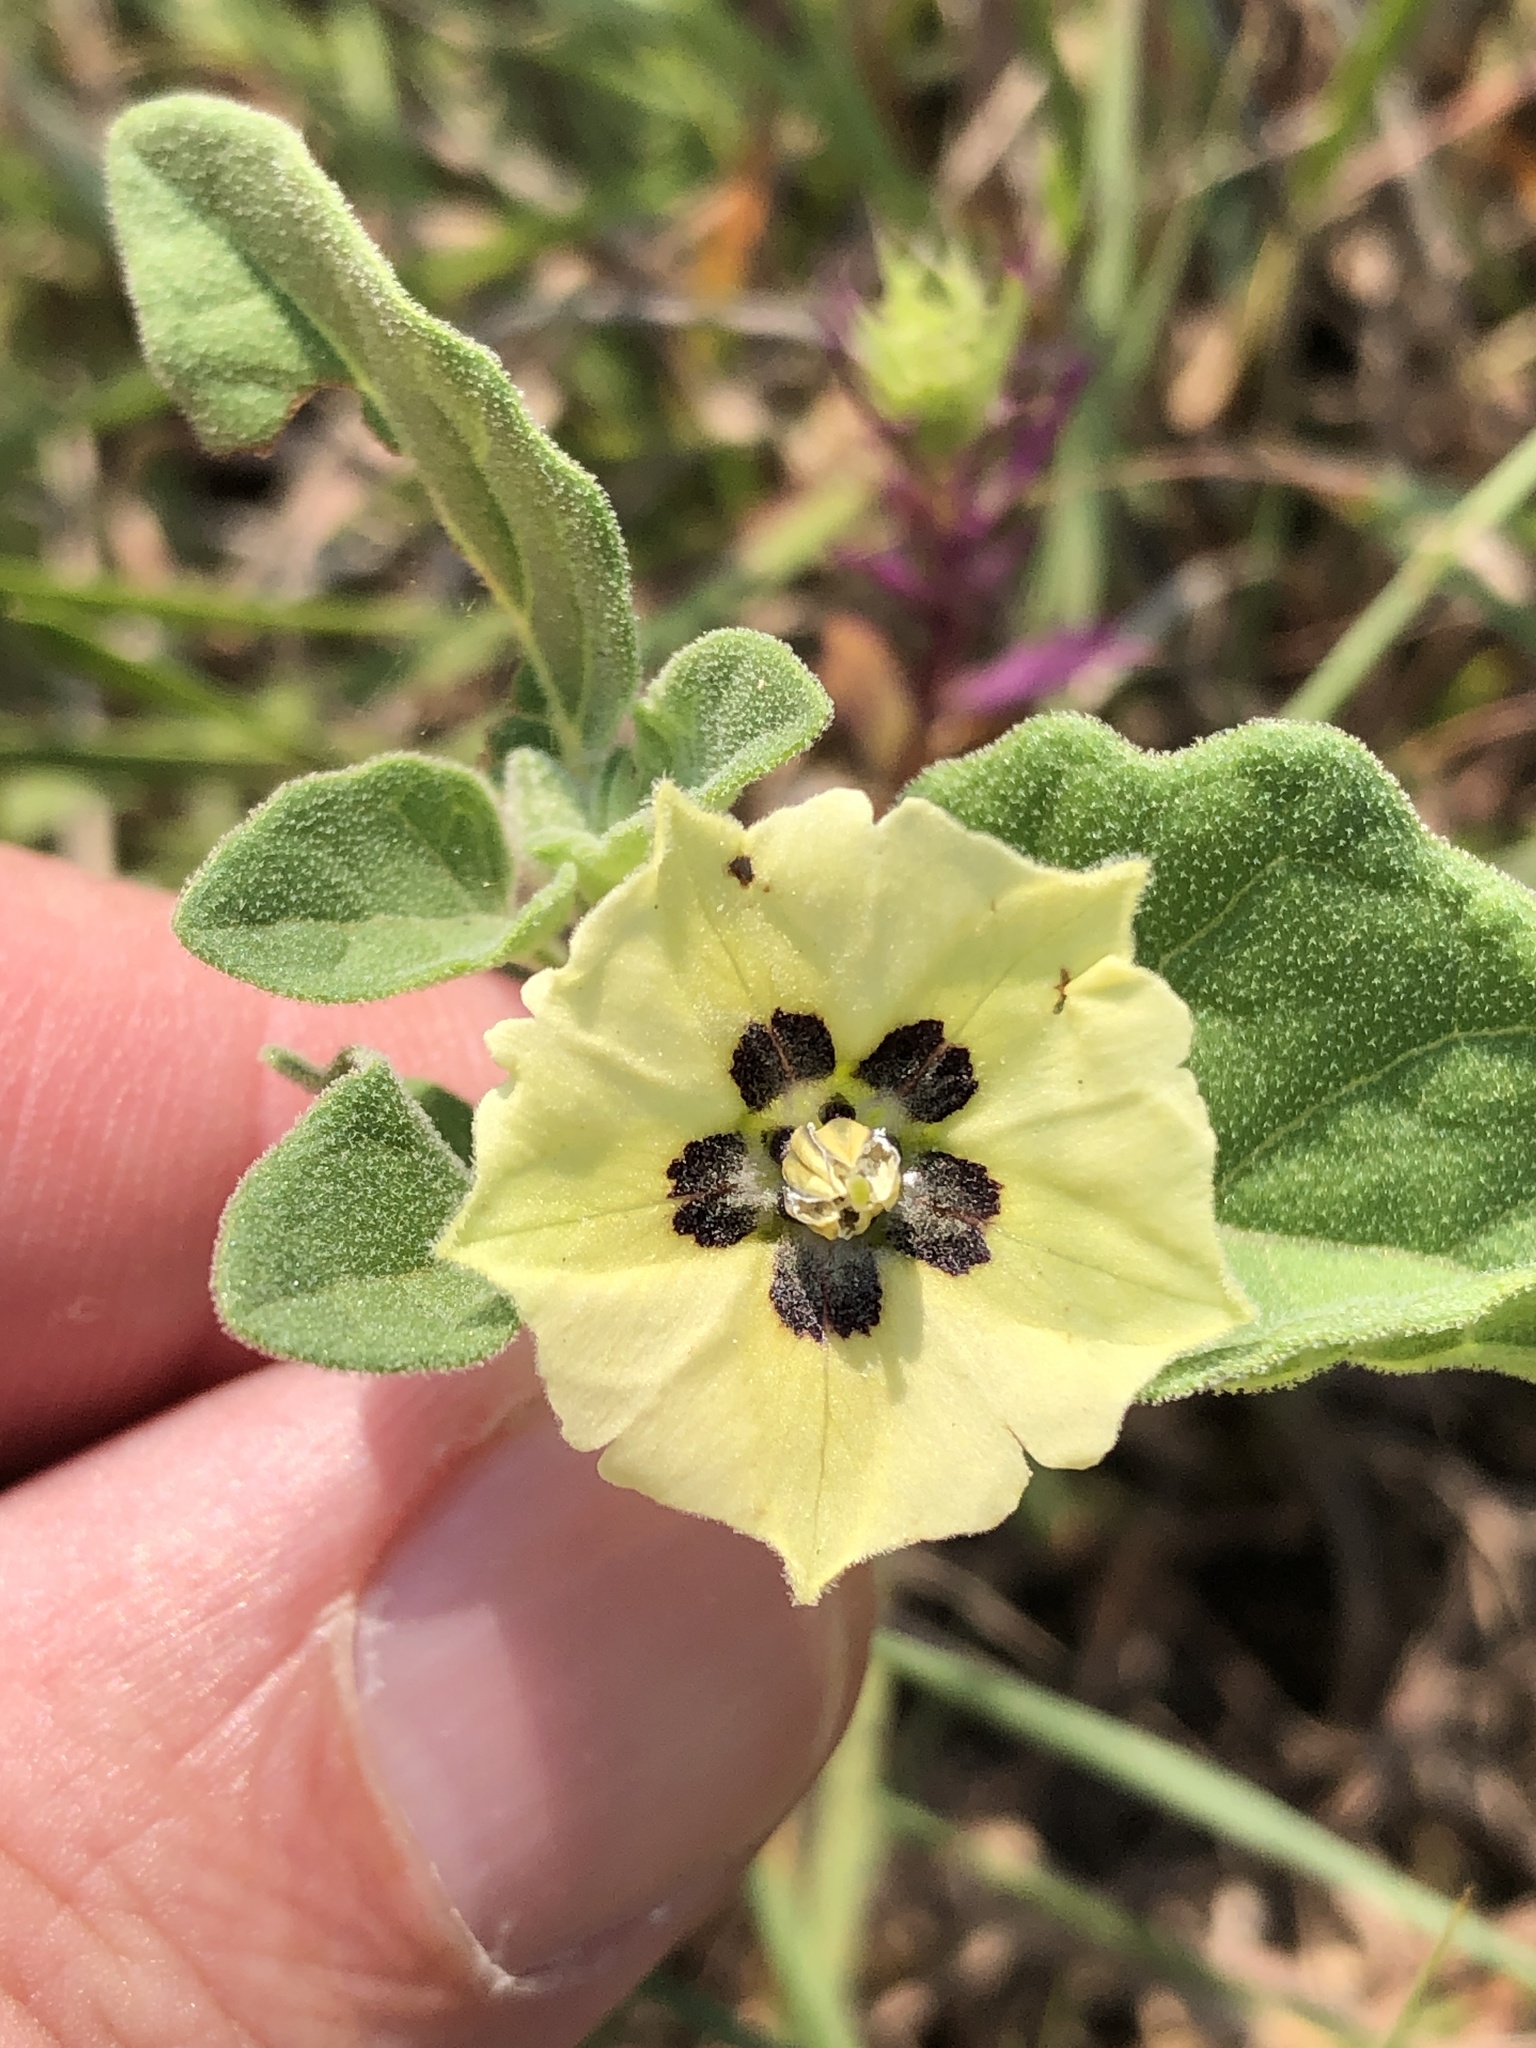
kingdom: Plantae
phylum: Tracheophyta
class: Magnoliopsida
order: Solanales
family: Solanaceae
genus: Physalis
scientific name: Physalis cinerascens
